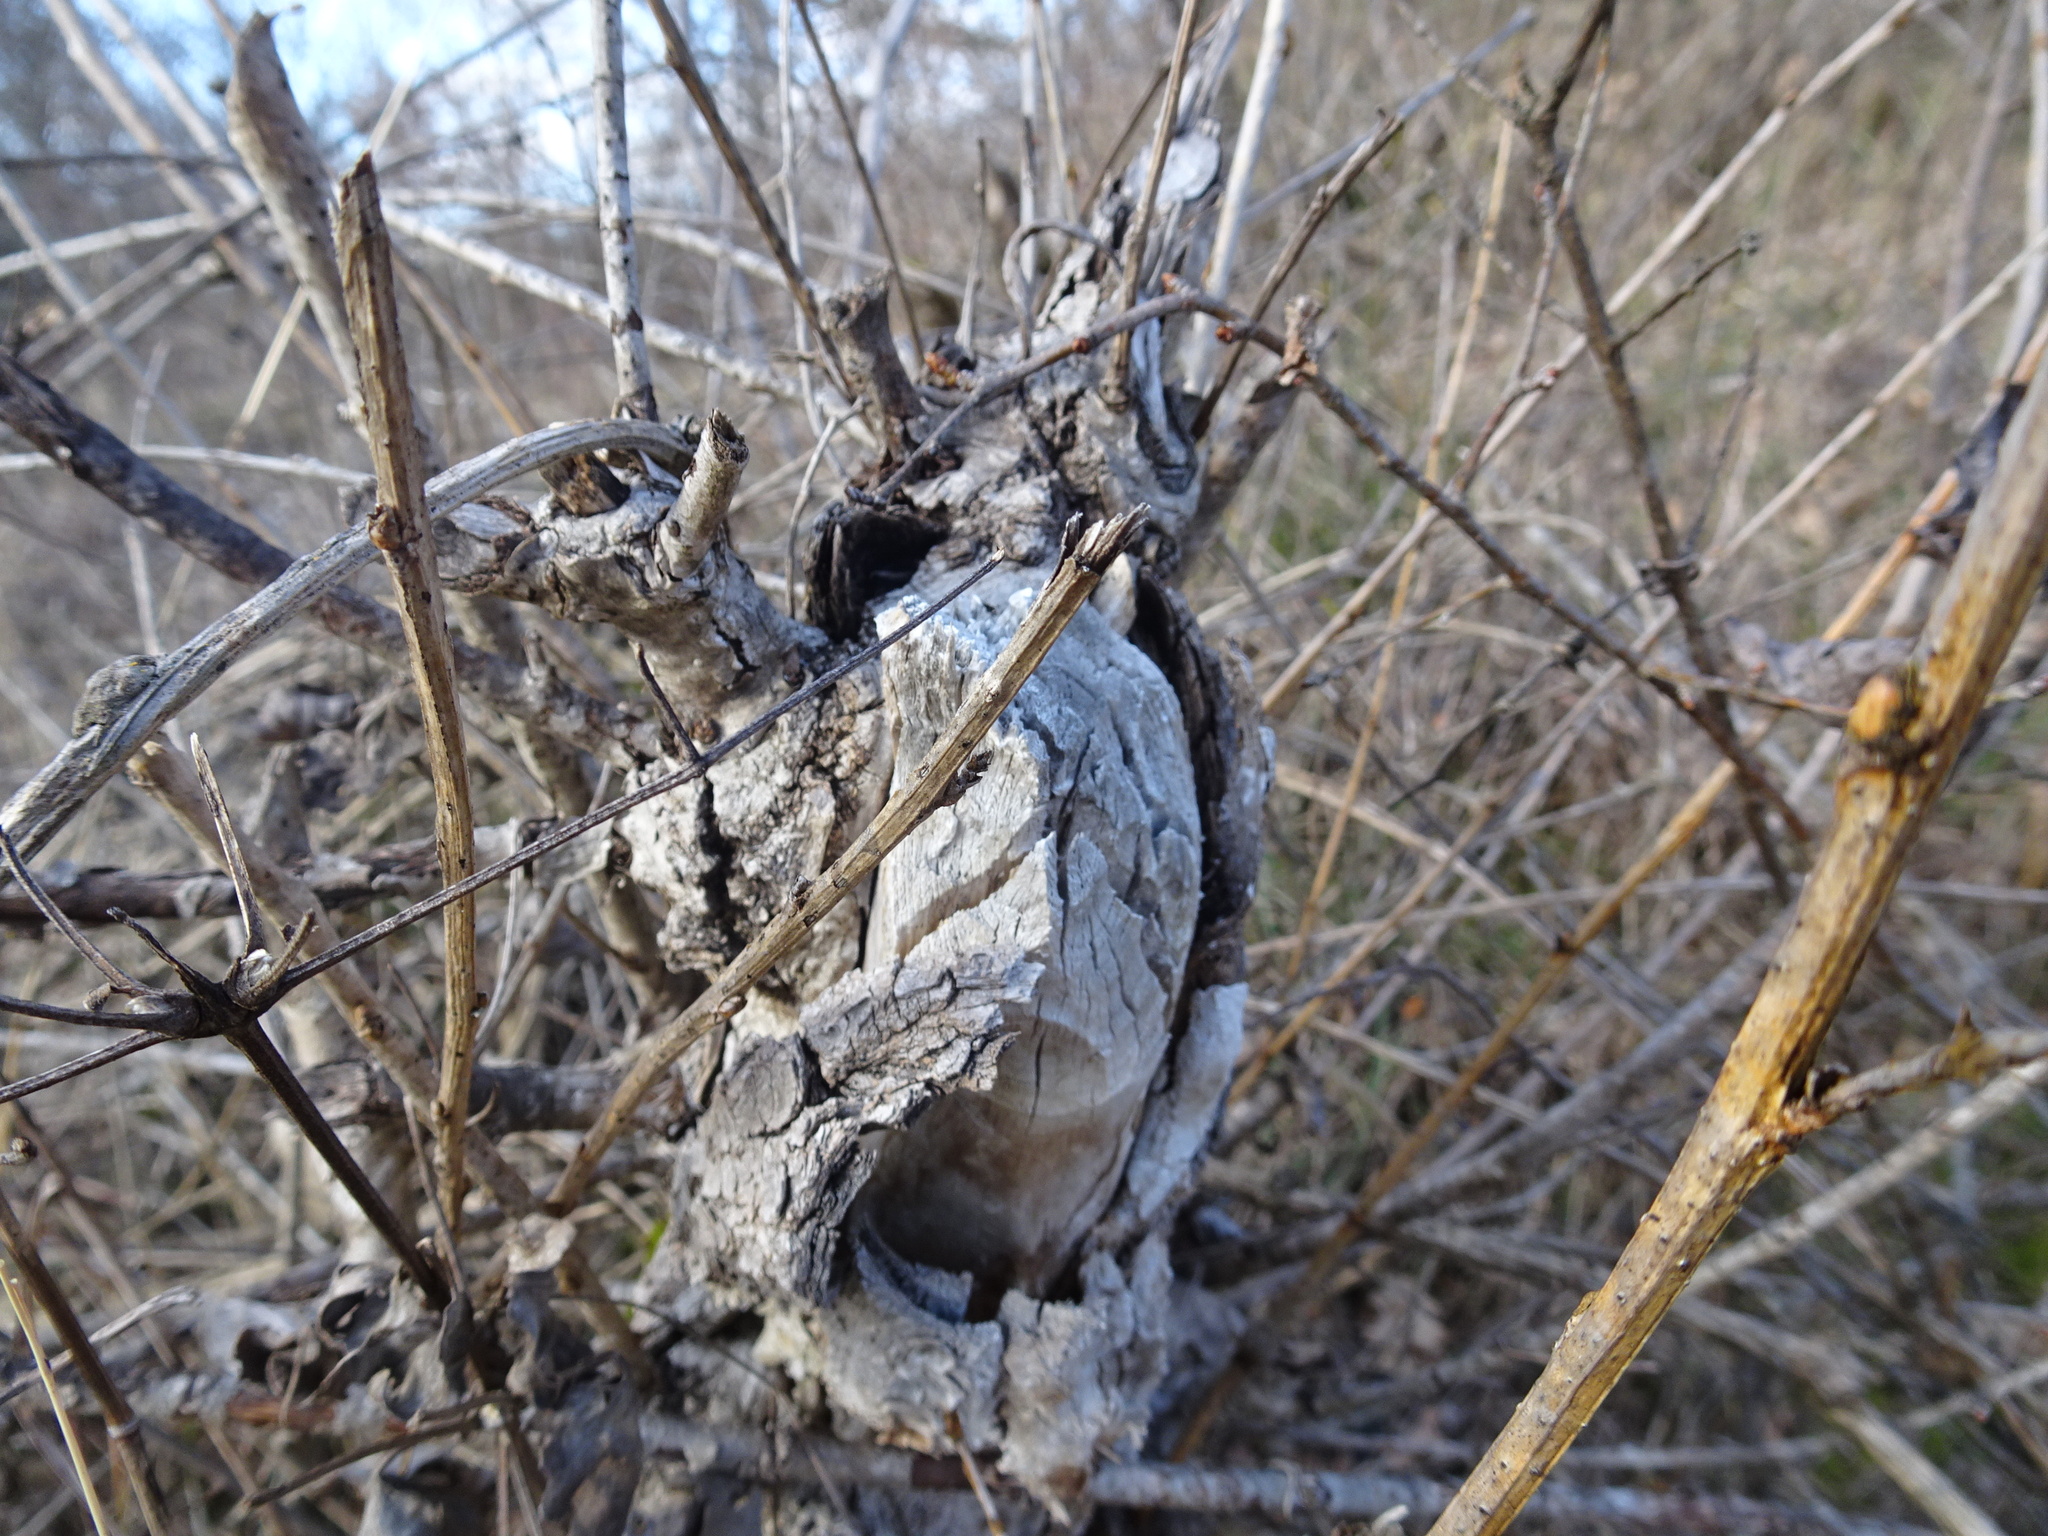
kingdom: Animalia
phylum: Chordata
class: Mammalia
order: Rodentia
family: Castoridae
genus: Castor
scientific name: Castor fiber
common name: Eurasian beaver
